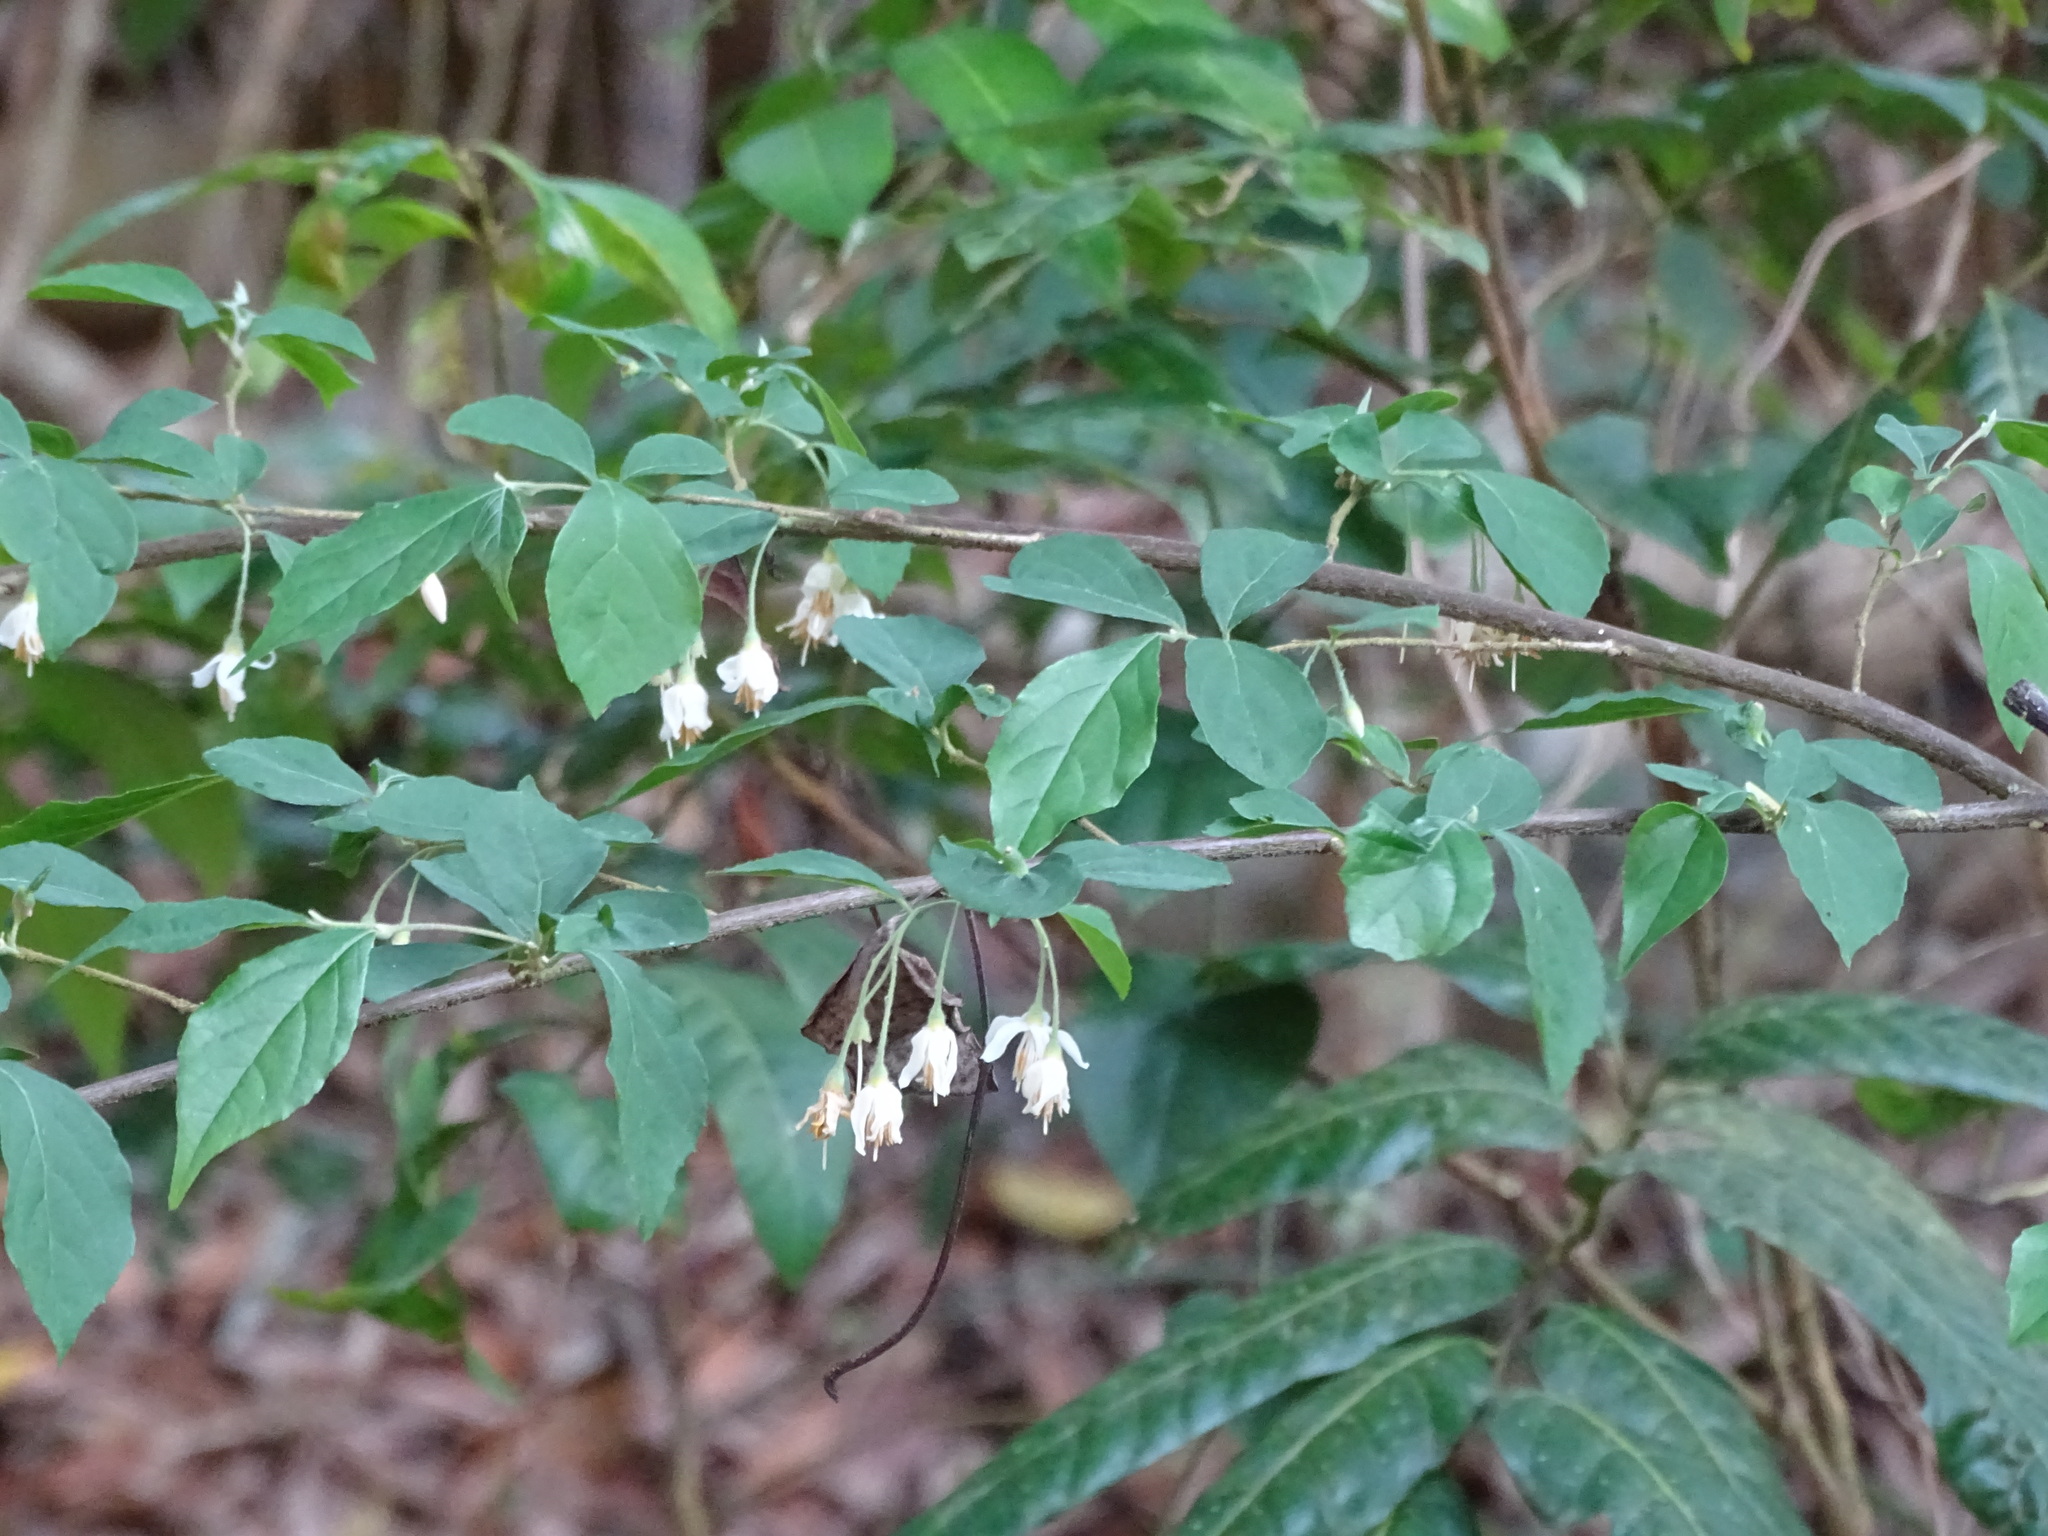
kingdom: Plantae
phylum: Tracheophyta
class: Magnoliopsida
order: Ericales
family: Styracaceae
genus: Styrax
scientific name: Styrax formosanus
